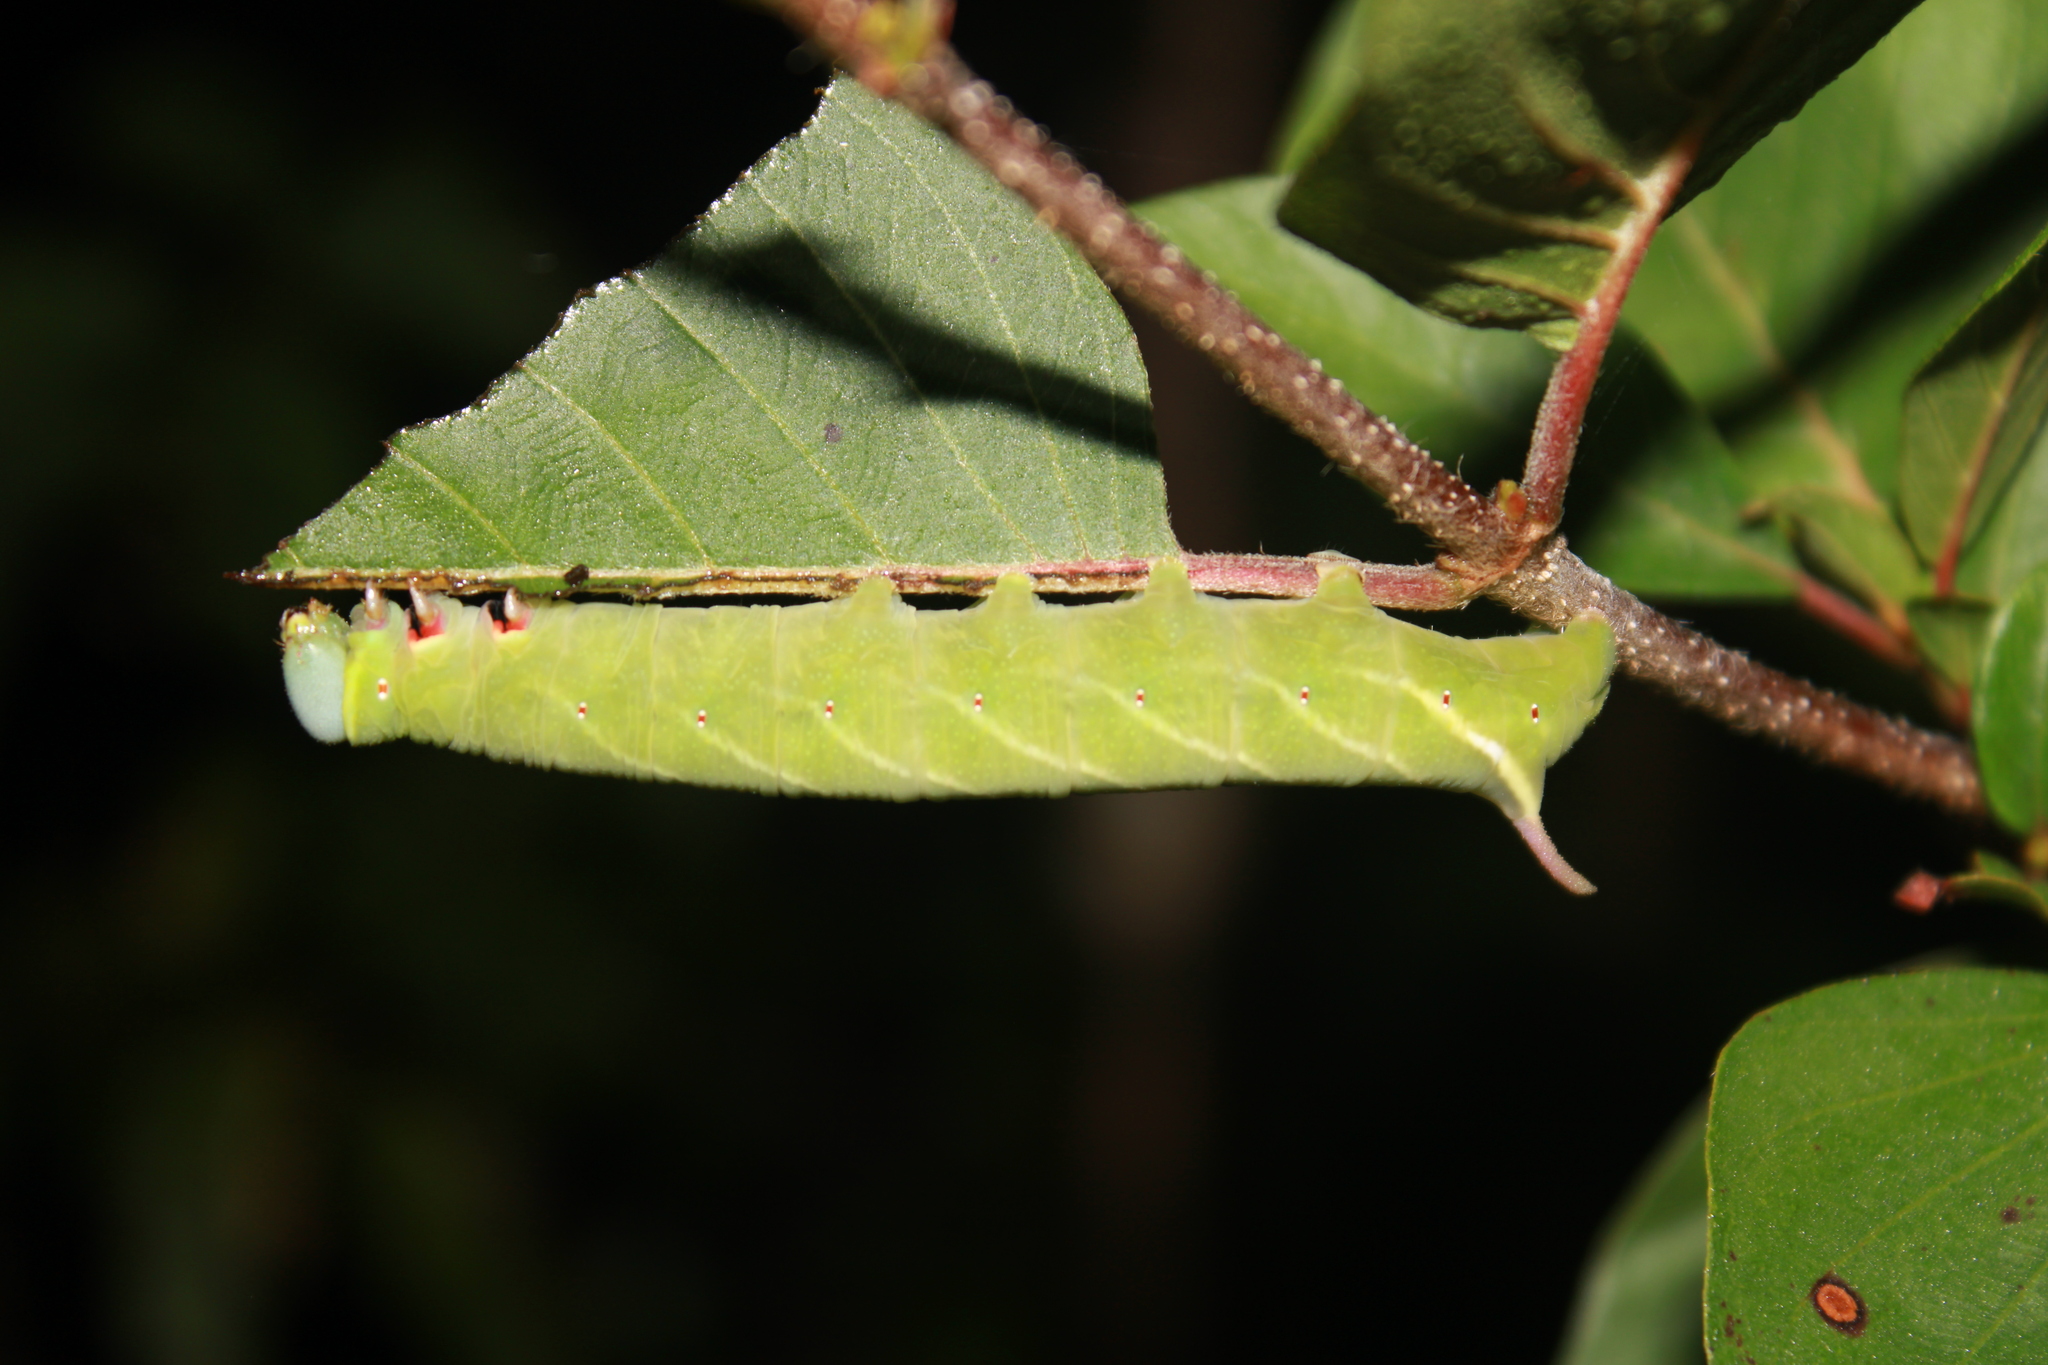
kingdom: Animalia
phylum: Arthropoda
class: Insecta
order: Lepidoptera
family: Sphingidae
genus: Perigonia
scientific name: Perigonia lusca
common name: Half-blind sphinx
